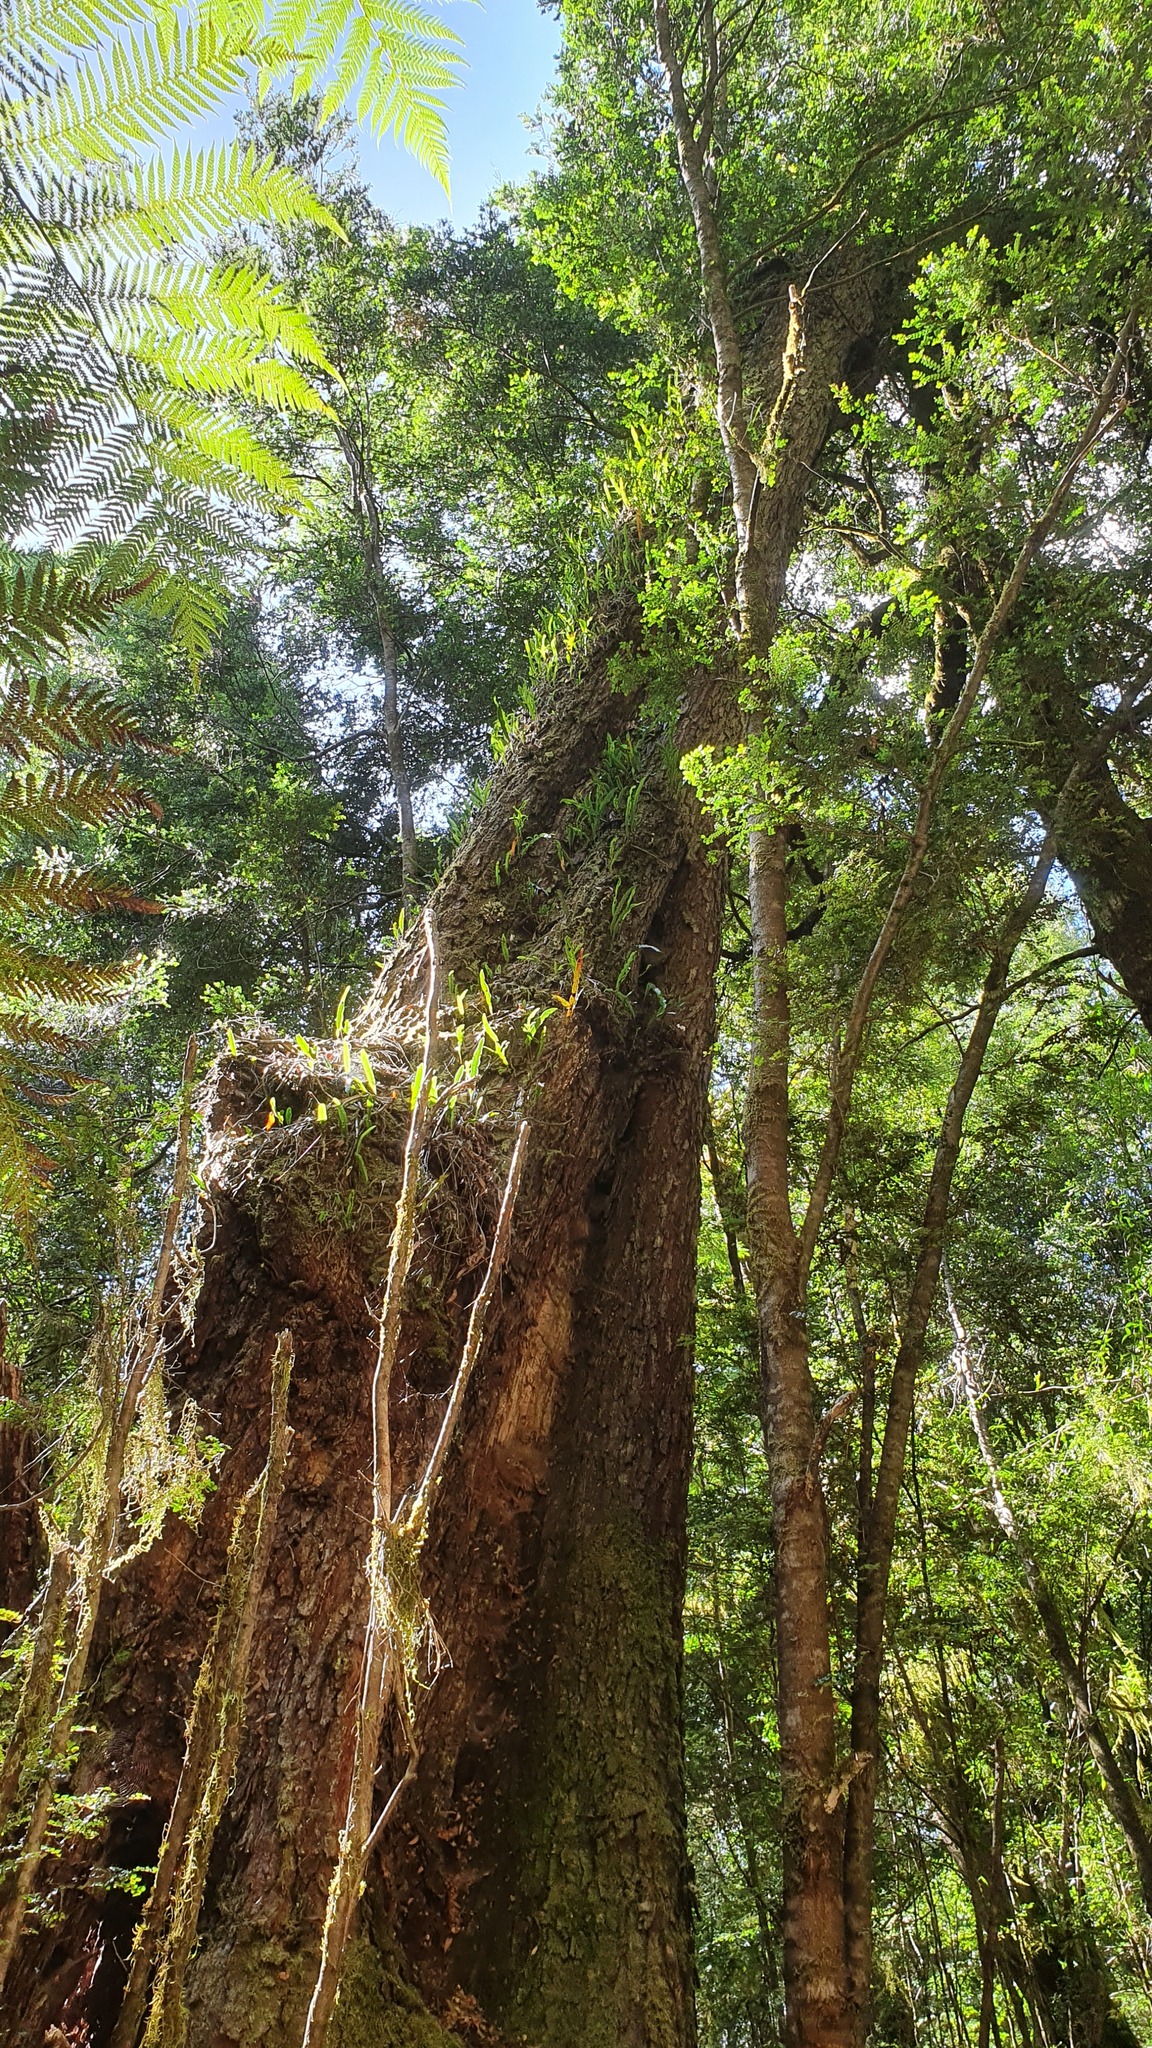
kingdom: Plantae
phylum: Tracheophyta
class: Magnoliopsida
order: Fagales
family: Nothofagaceae
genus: Nothofagus
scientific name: Nothofagus cunninghamii
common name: Myrtle beech
